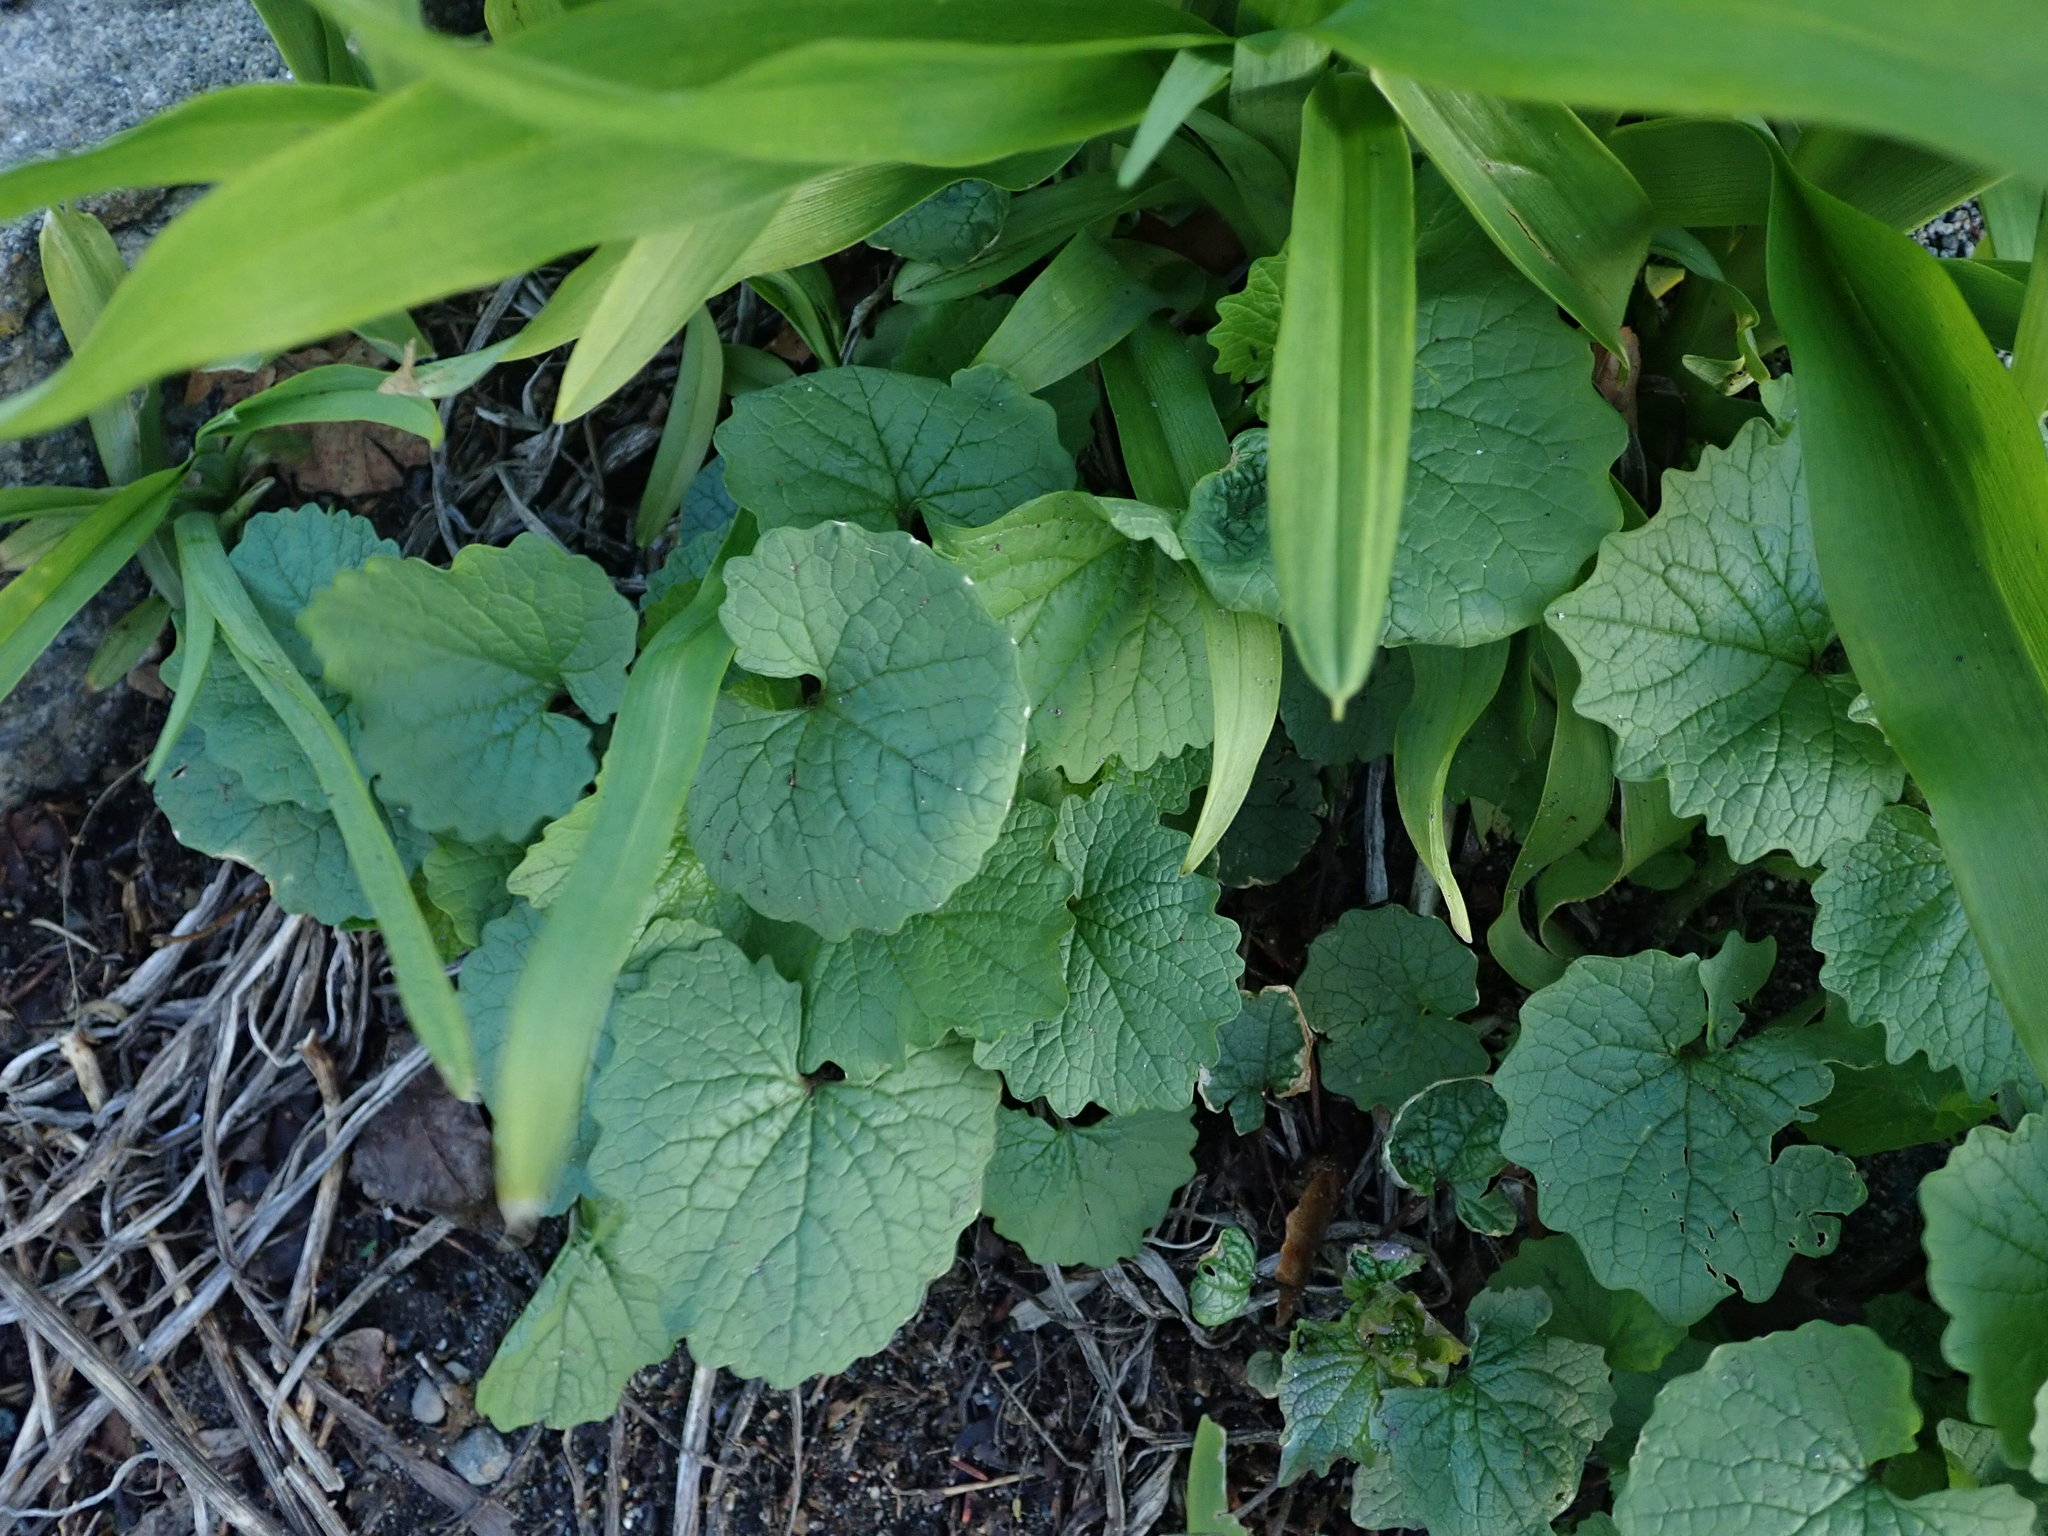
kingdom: Plantae
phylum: Tracheophyta
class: Magnoliopsida
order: Brassicales
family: Brassicaceae
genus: Alliaria
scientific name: Alliaria petiolata
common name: Garlic mustard
